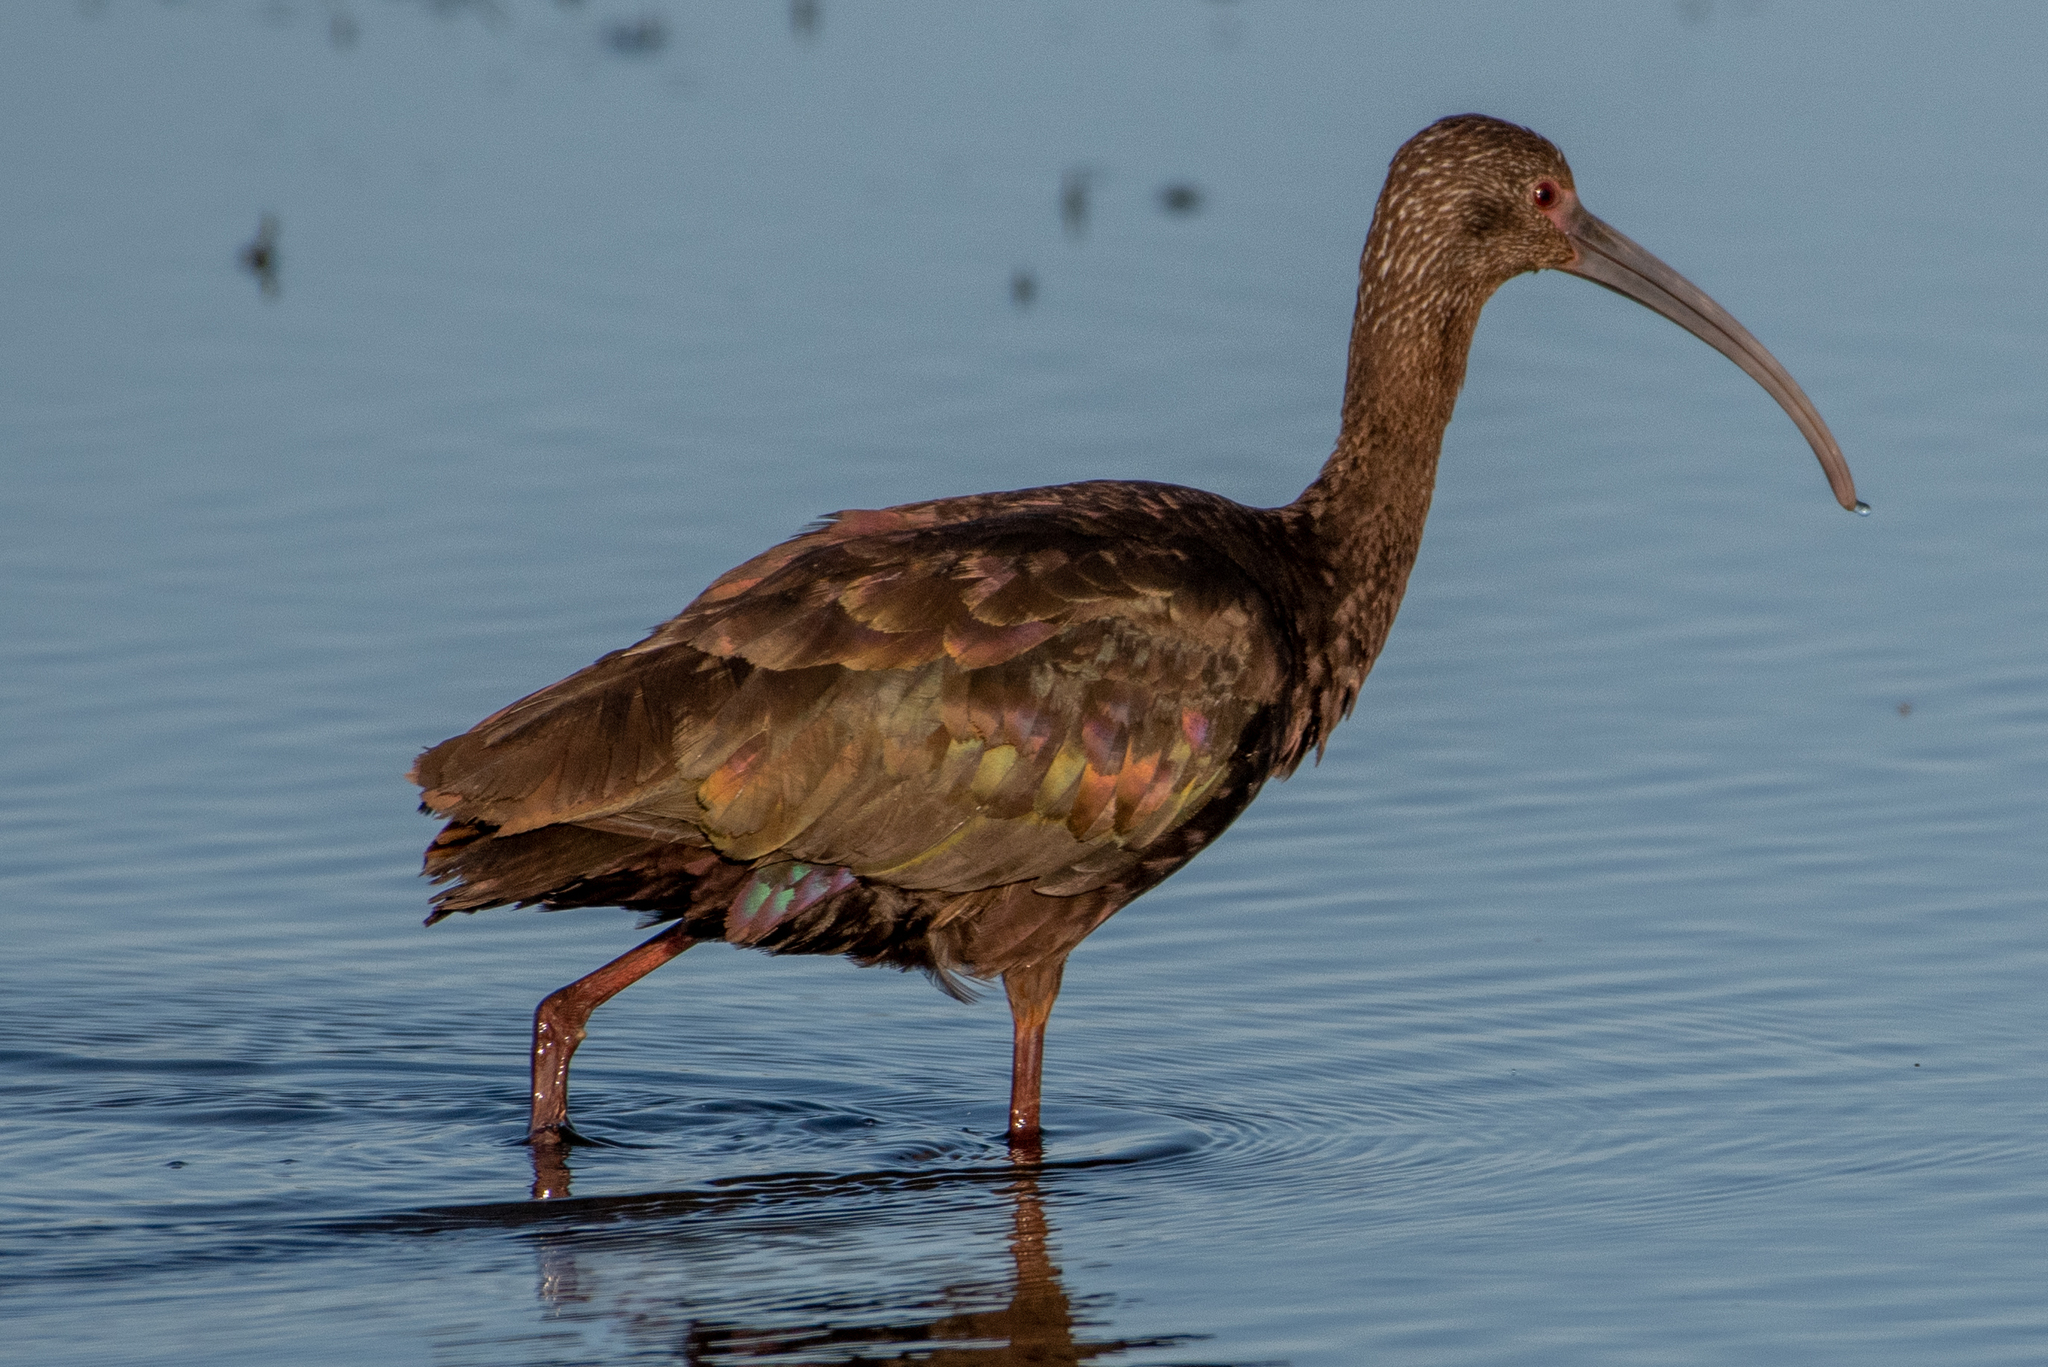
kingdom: Animalia
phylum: Chordata
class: Aves
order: Pelecaniformes
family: Threskiornithidae
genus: Plegadis
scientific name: Plegadis chihi
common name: White-faced ibis
